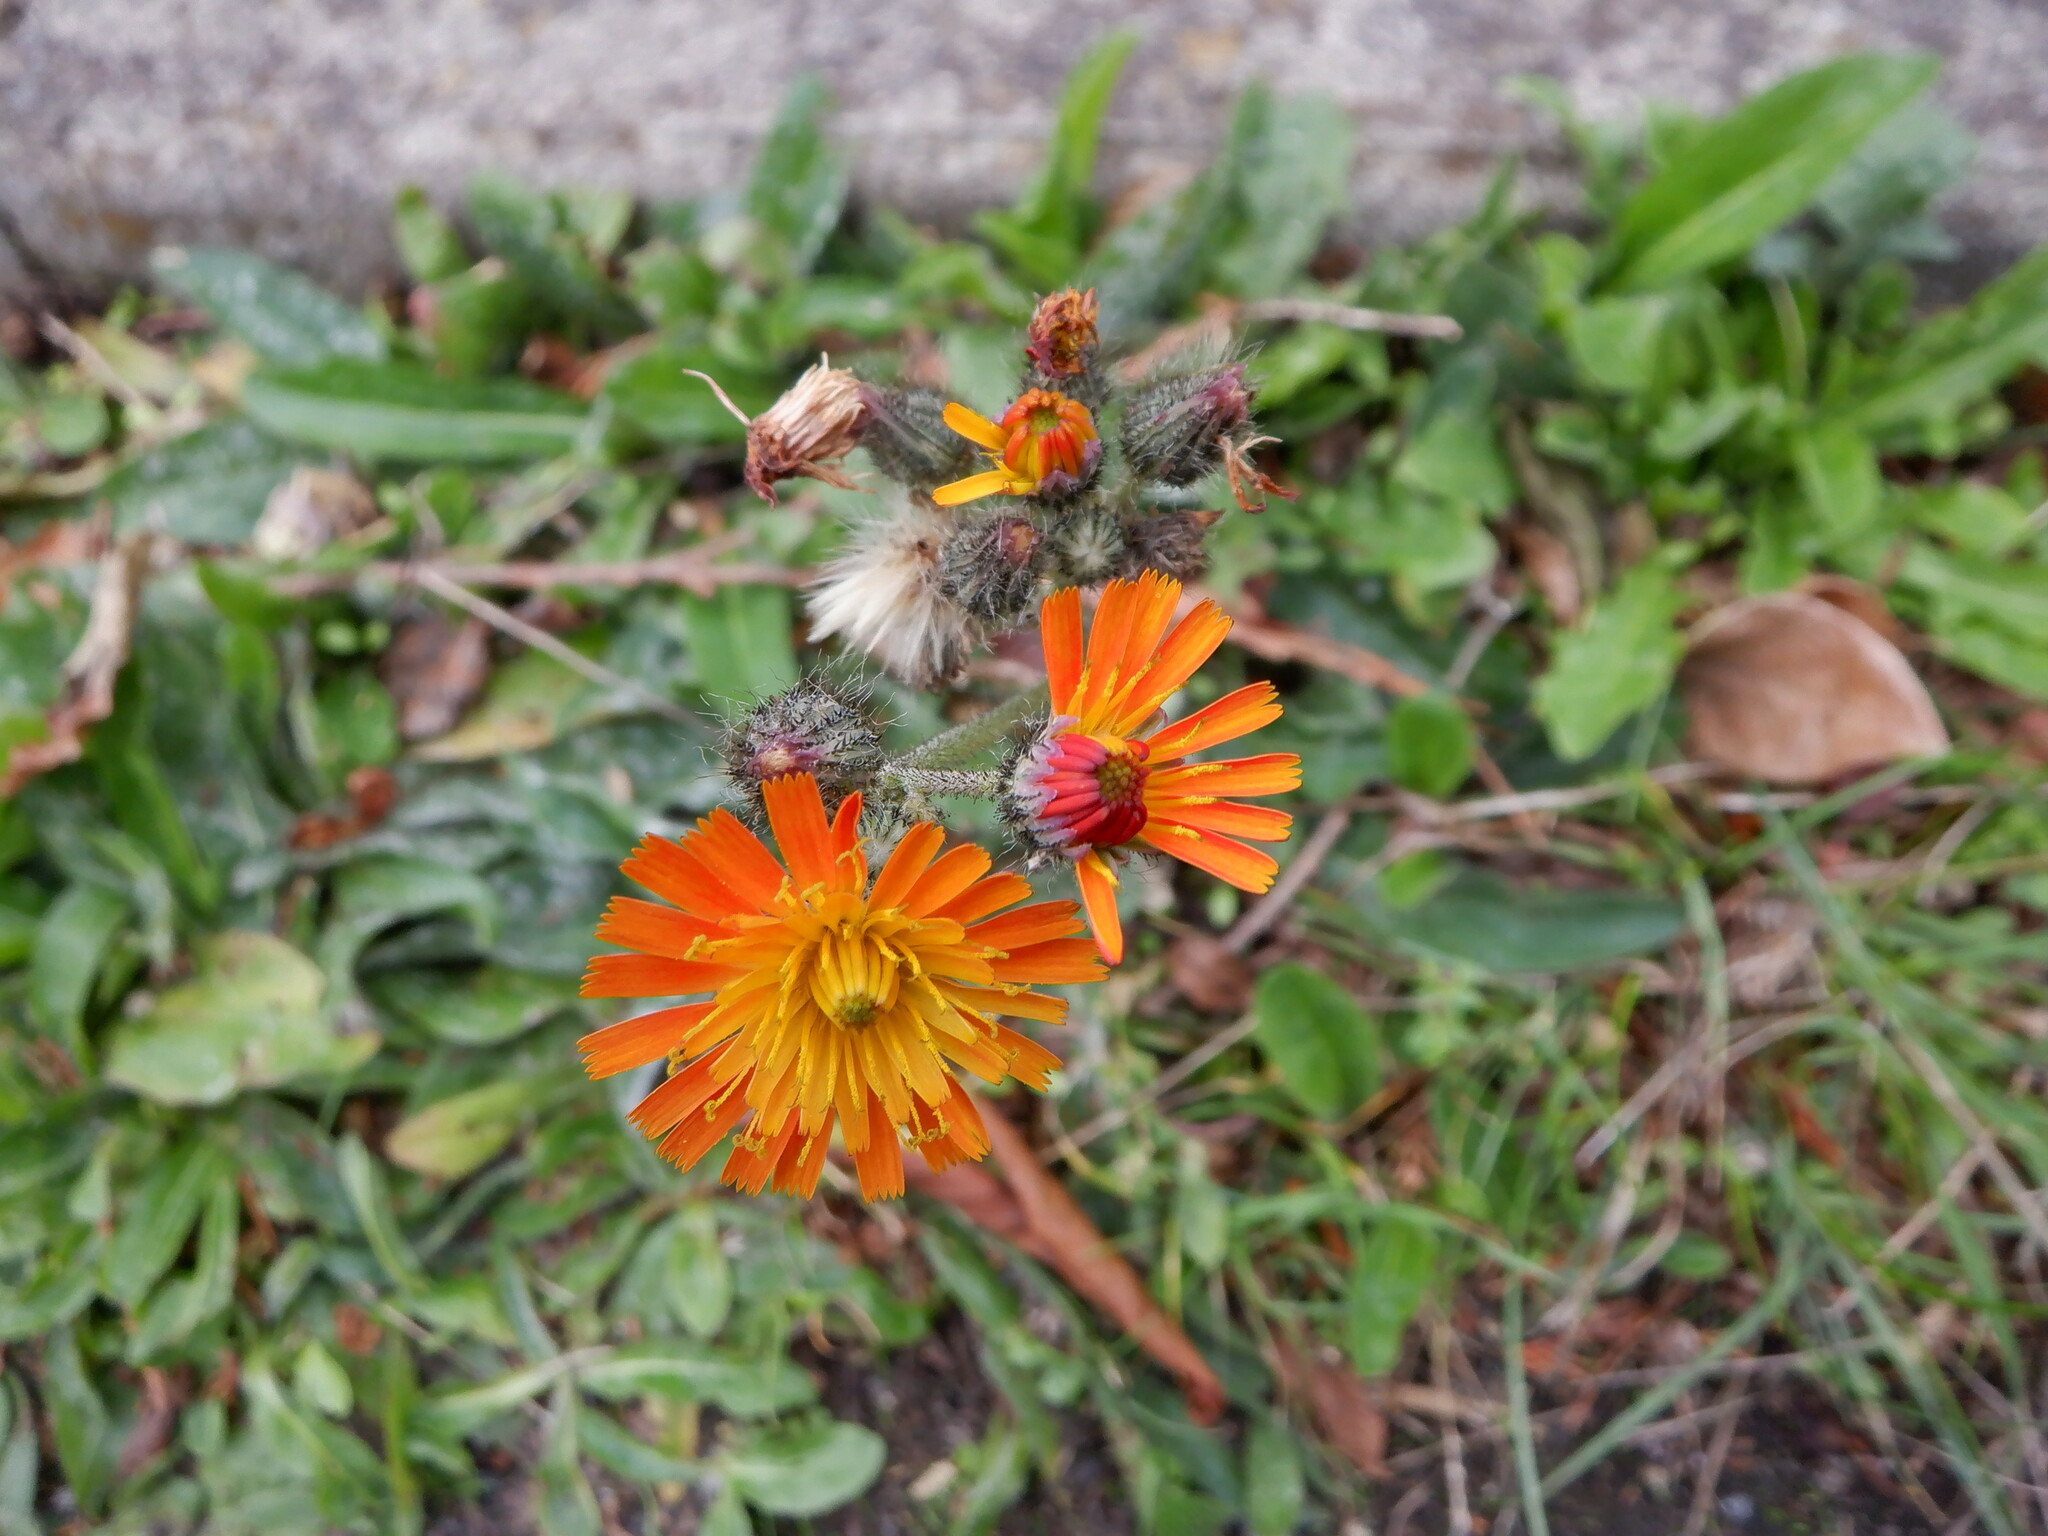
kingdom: Plantae
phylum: Tracheophyta
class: Magnoliopsida
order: Asterales
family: Asteraceae
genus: Pilosella
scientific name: Pilosella aurantiaca
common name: Fox-and-cubs
